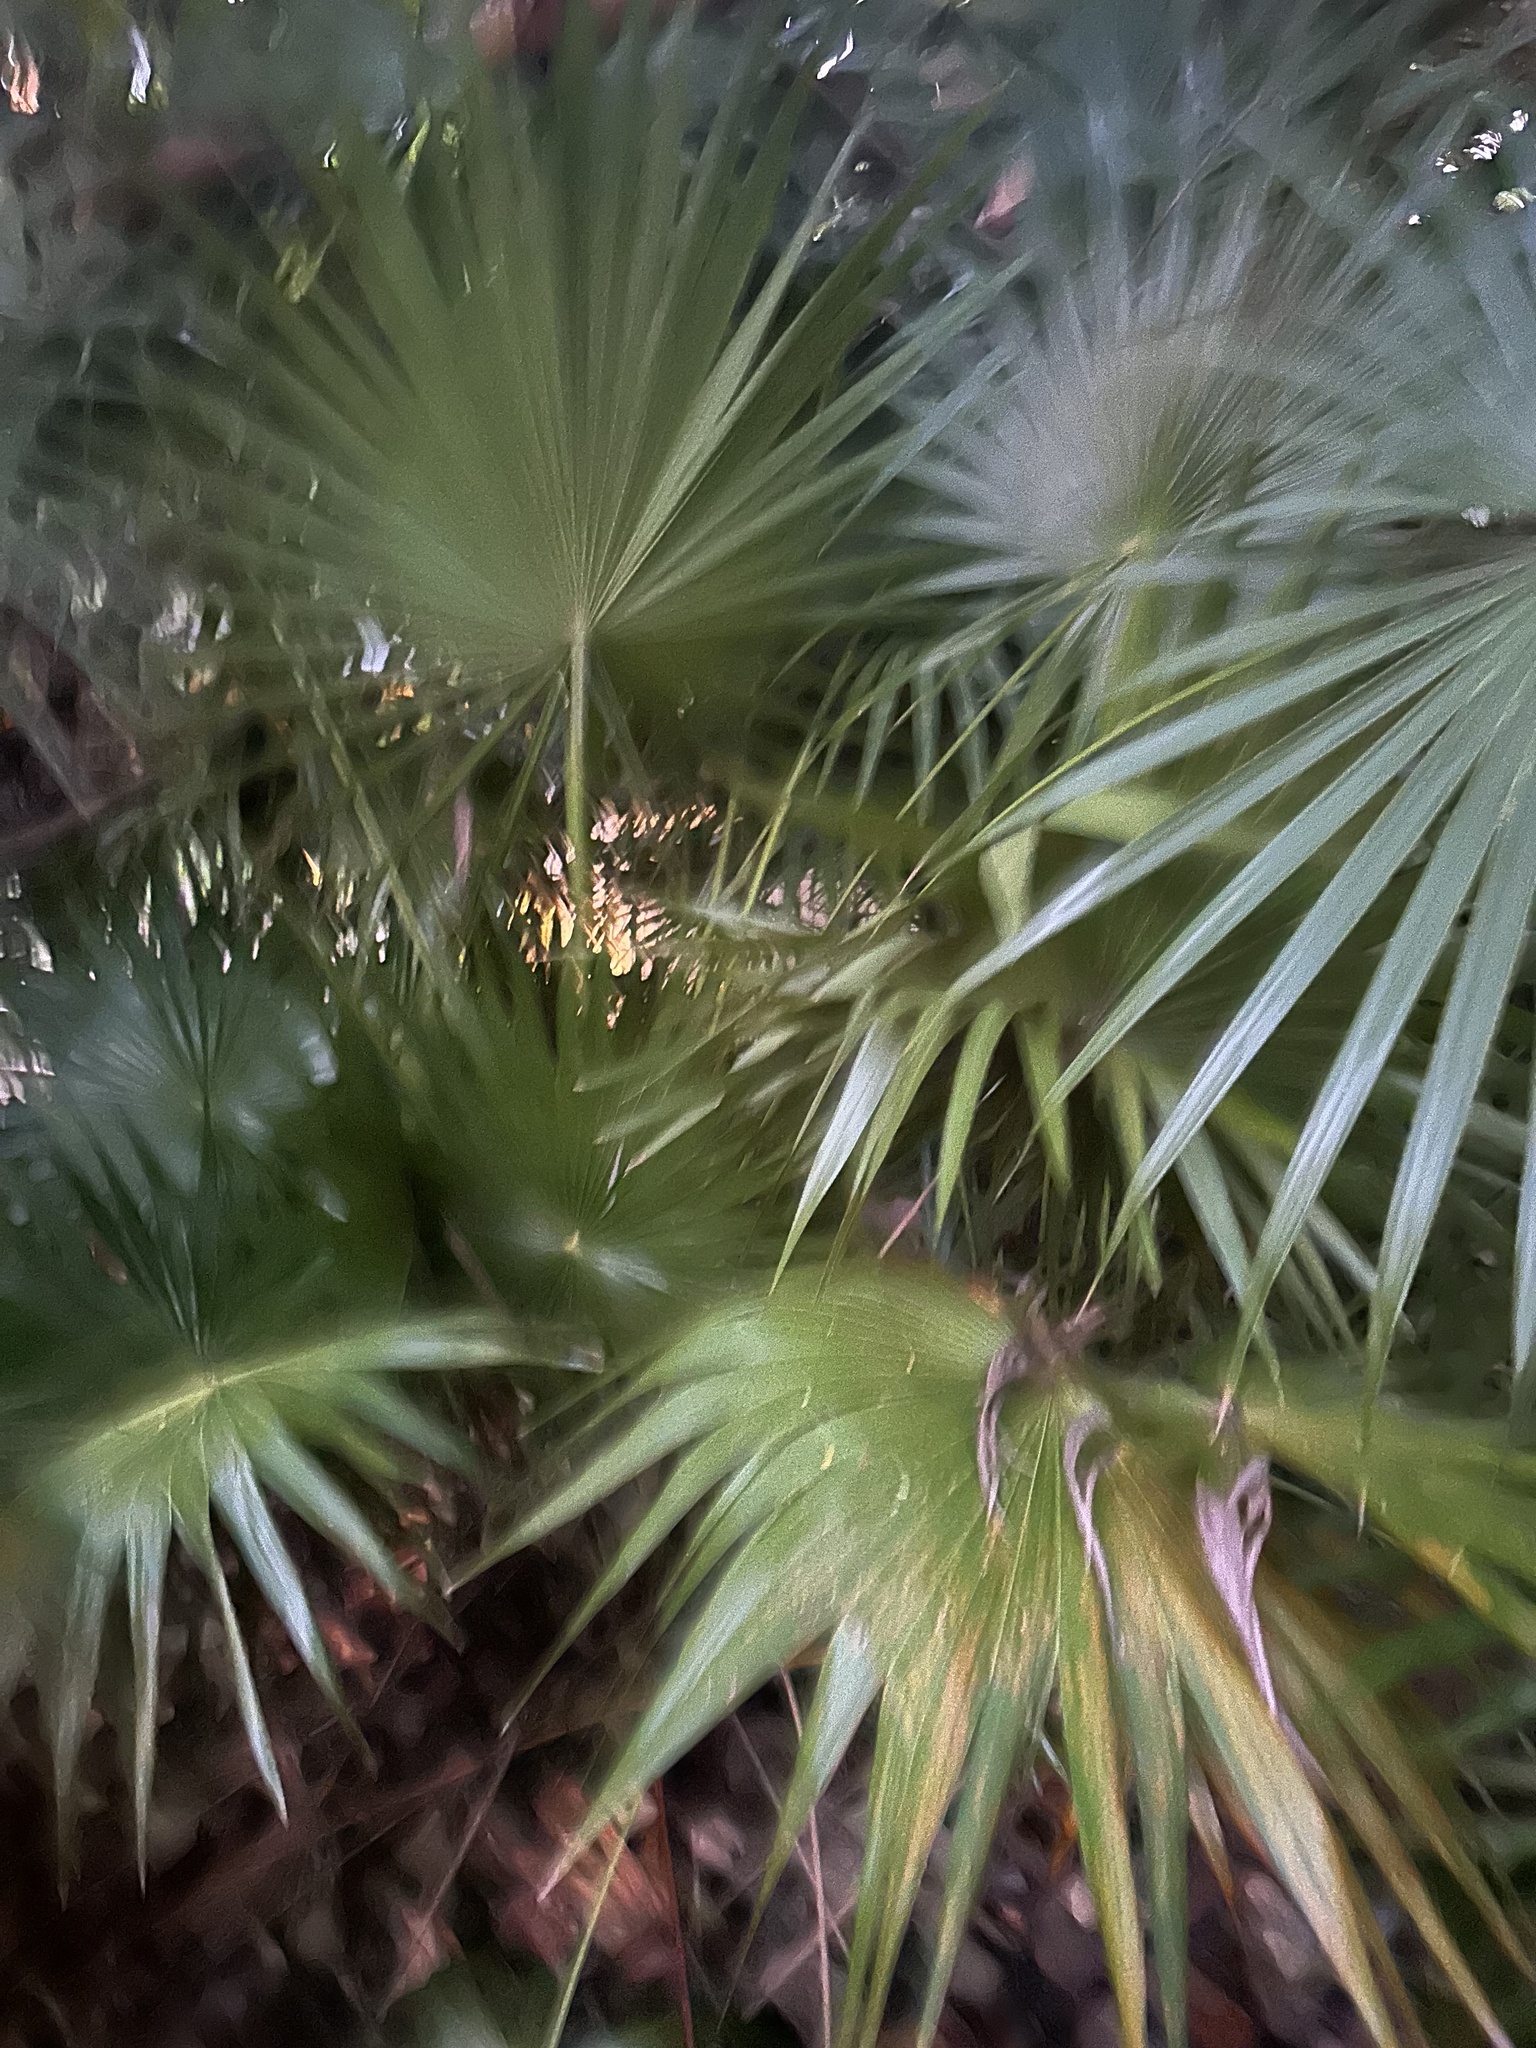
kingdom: Plantae
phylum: Tracheophyta
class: Liliopsida
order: Arecales
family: Arecaceae
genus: Thrinax
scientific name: Thrinax radiata
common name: Florida thatch
